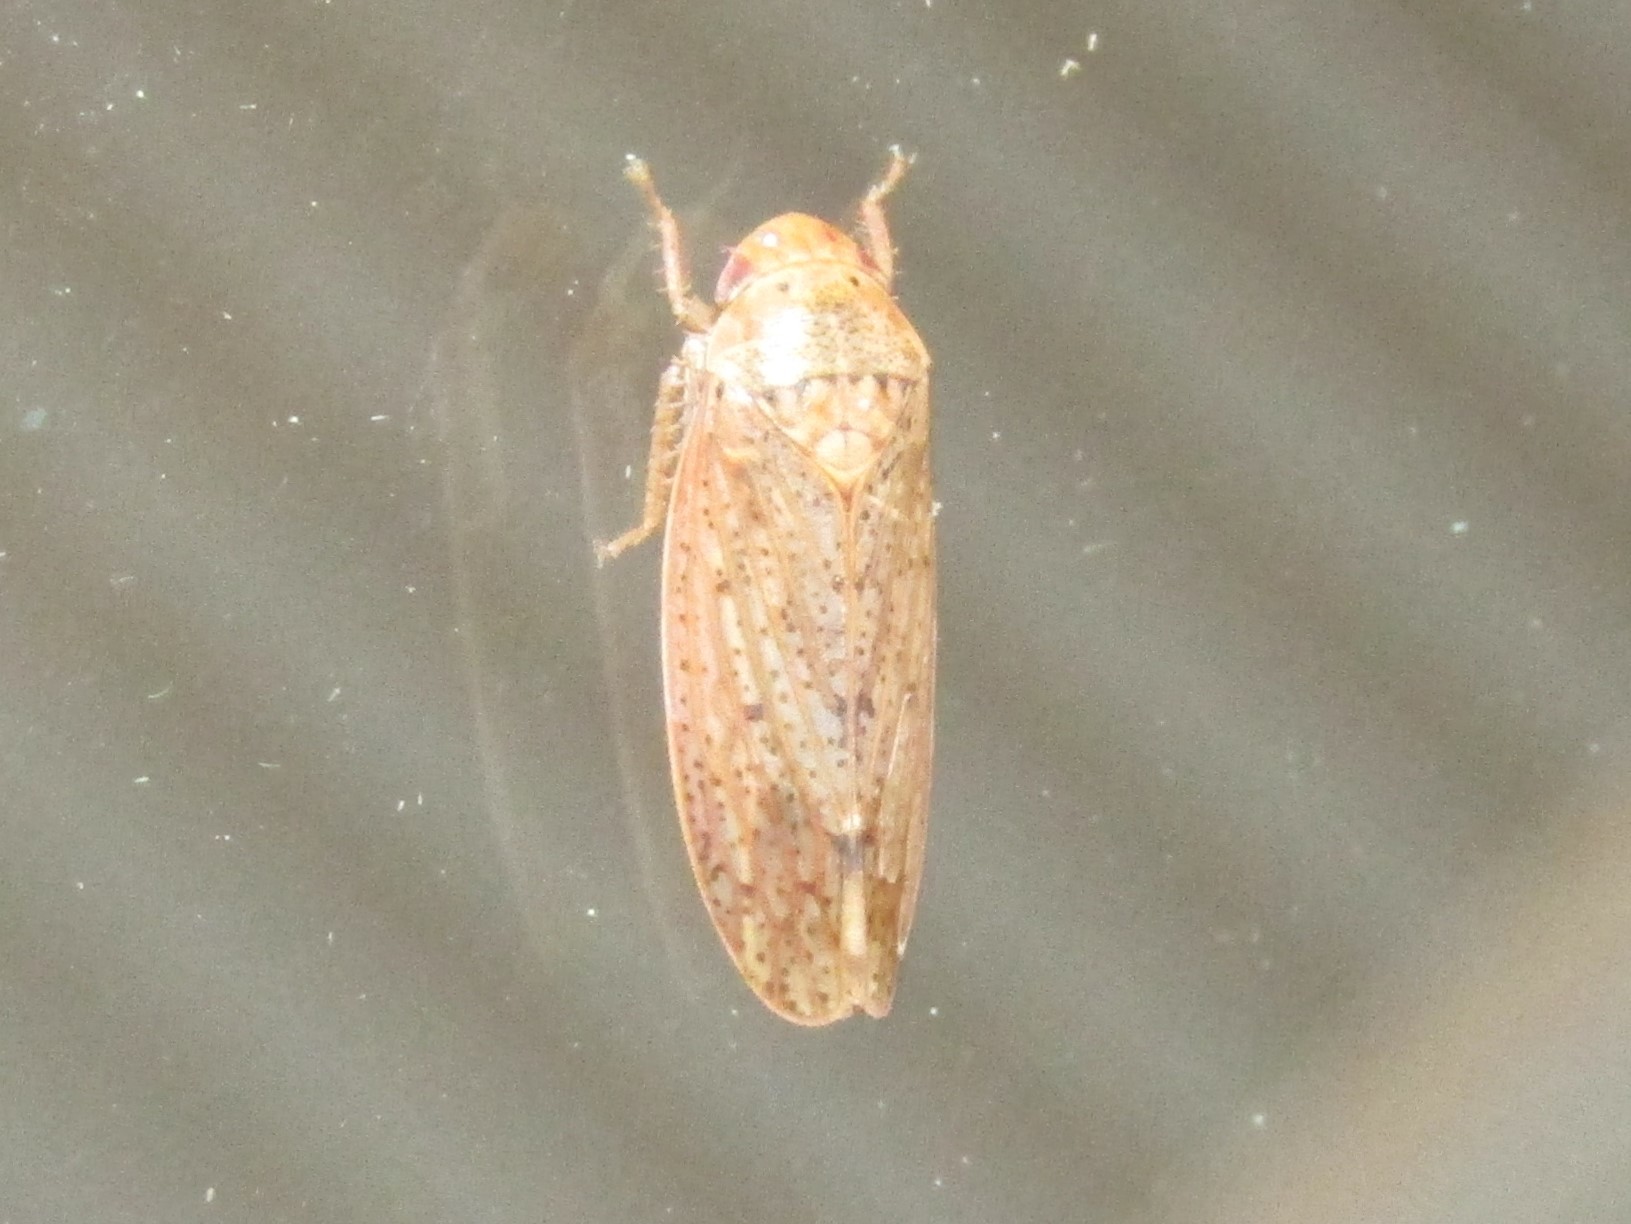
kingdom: Animalia
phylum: Arthropoda
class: Insecta
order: Hemiptera
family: Cicadellidae
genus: Ponana
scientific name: Ponana puncticollis
